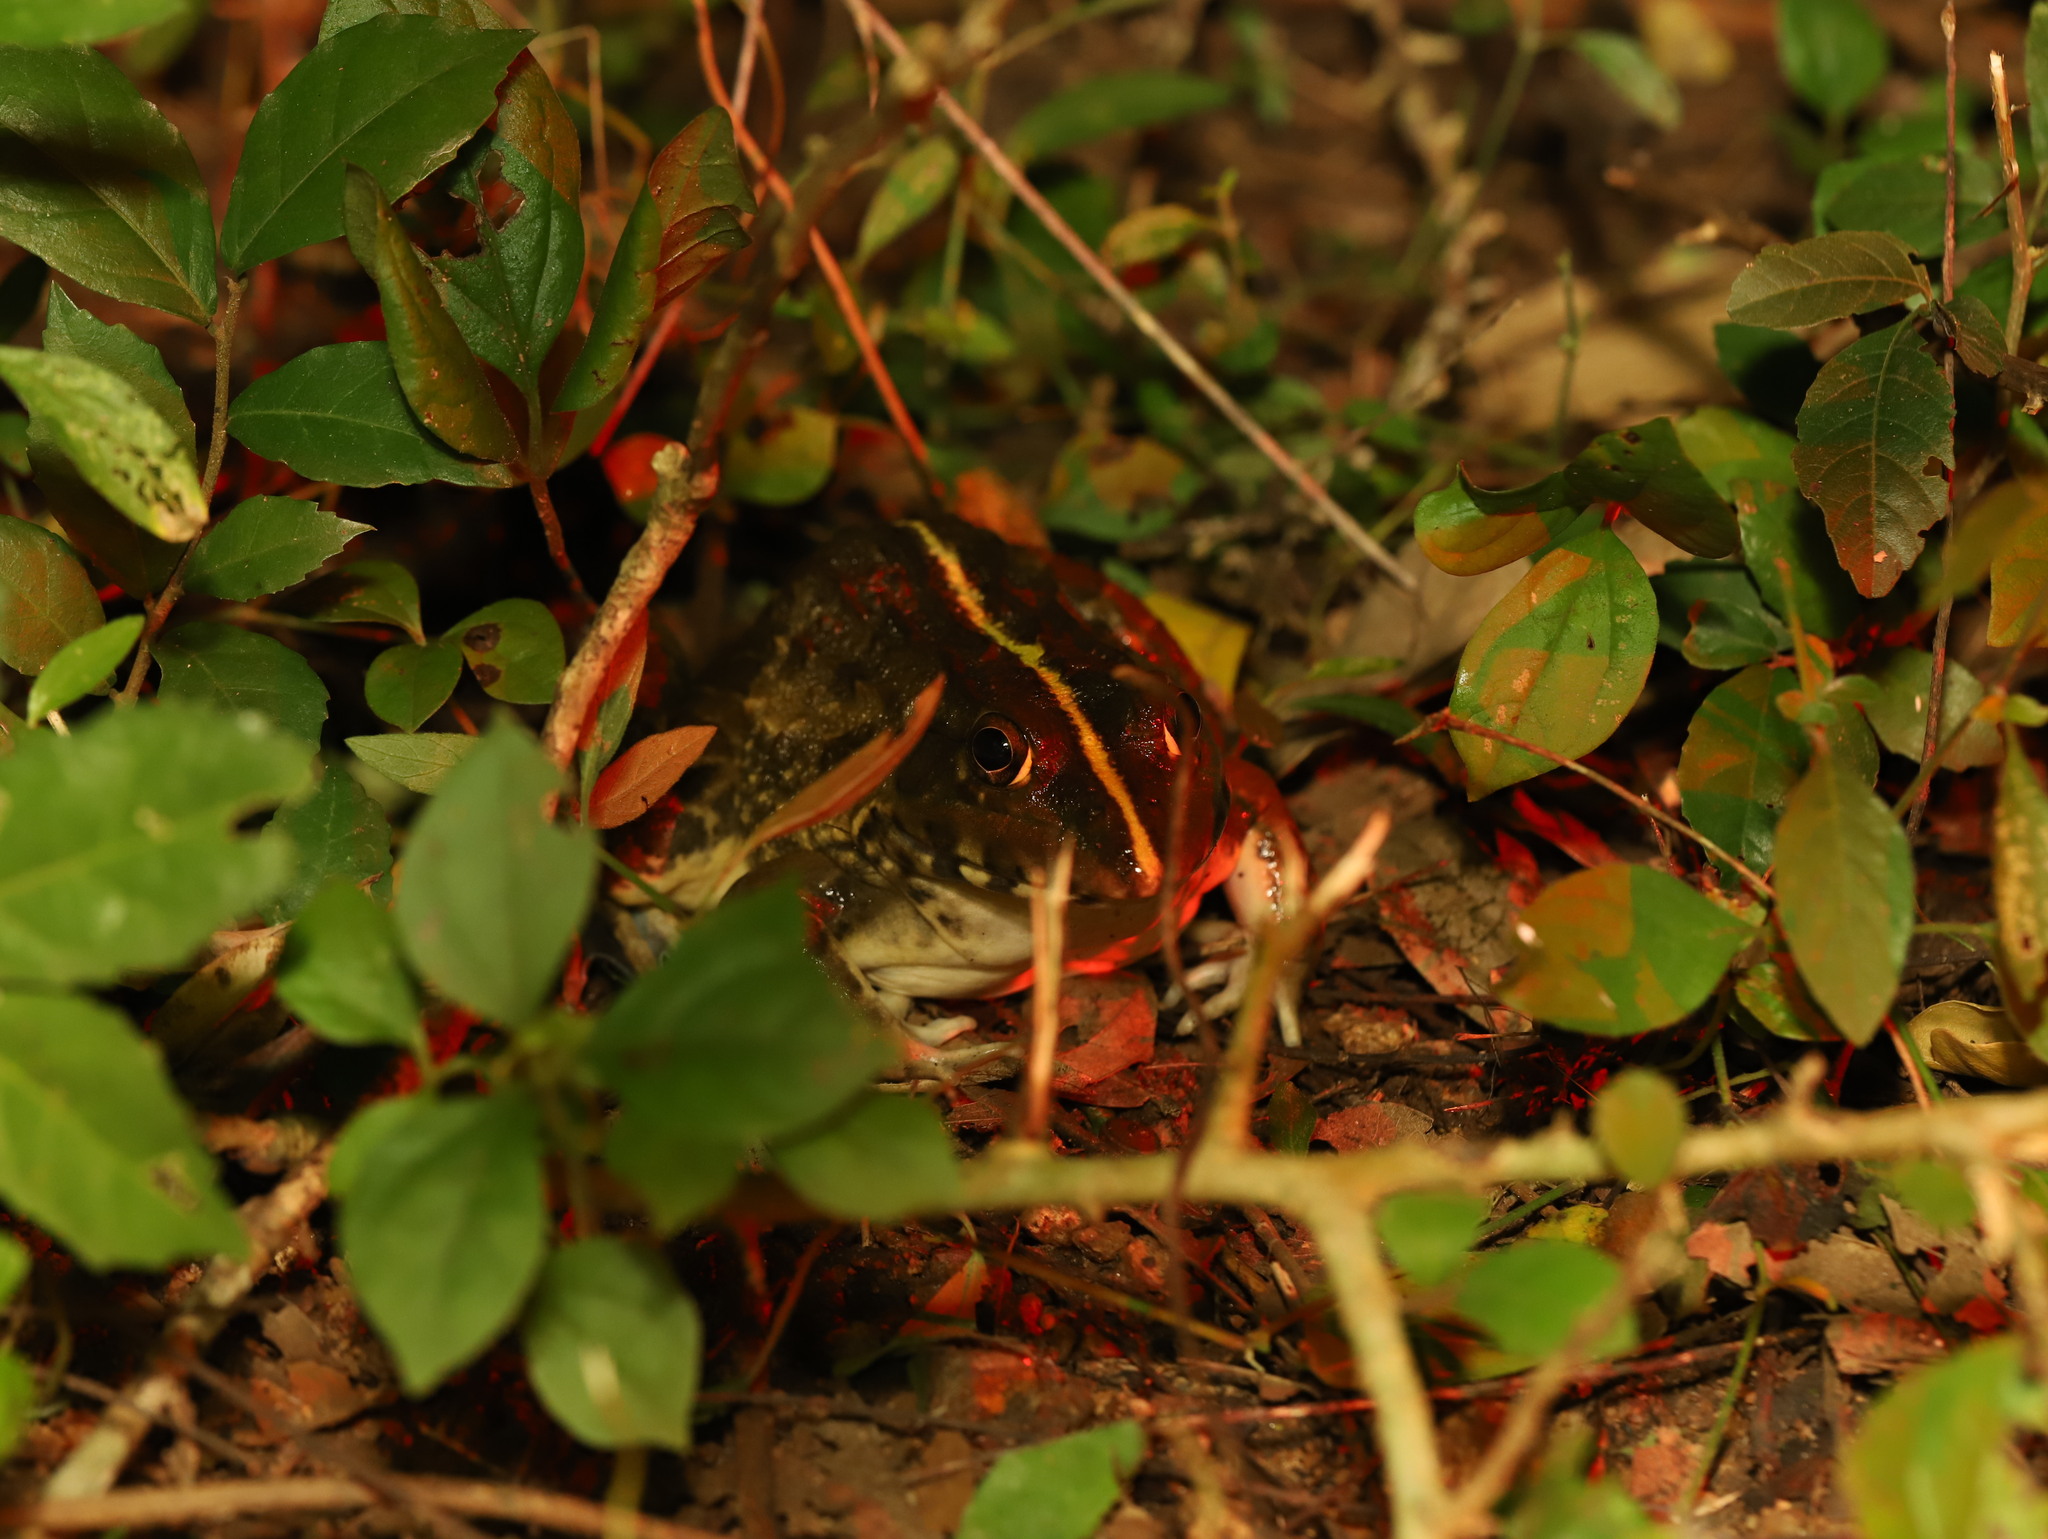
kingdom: Animalia
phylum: Chordata
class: Amphibia
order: Anura
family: Dicroglossidae
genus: Hoplobatrachus
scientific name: Hoplobatrachus crassus
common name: Jerdon's bullfrog
